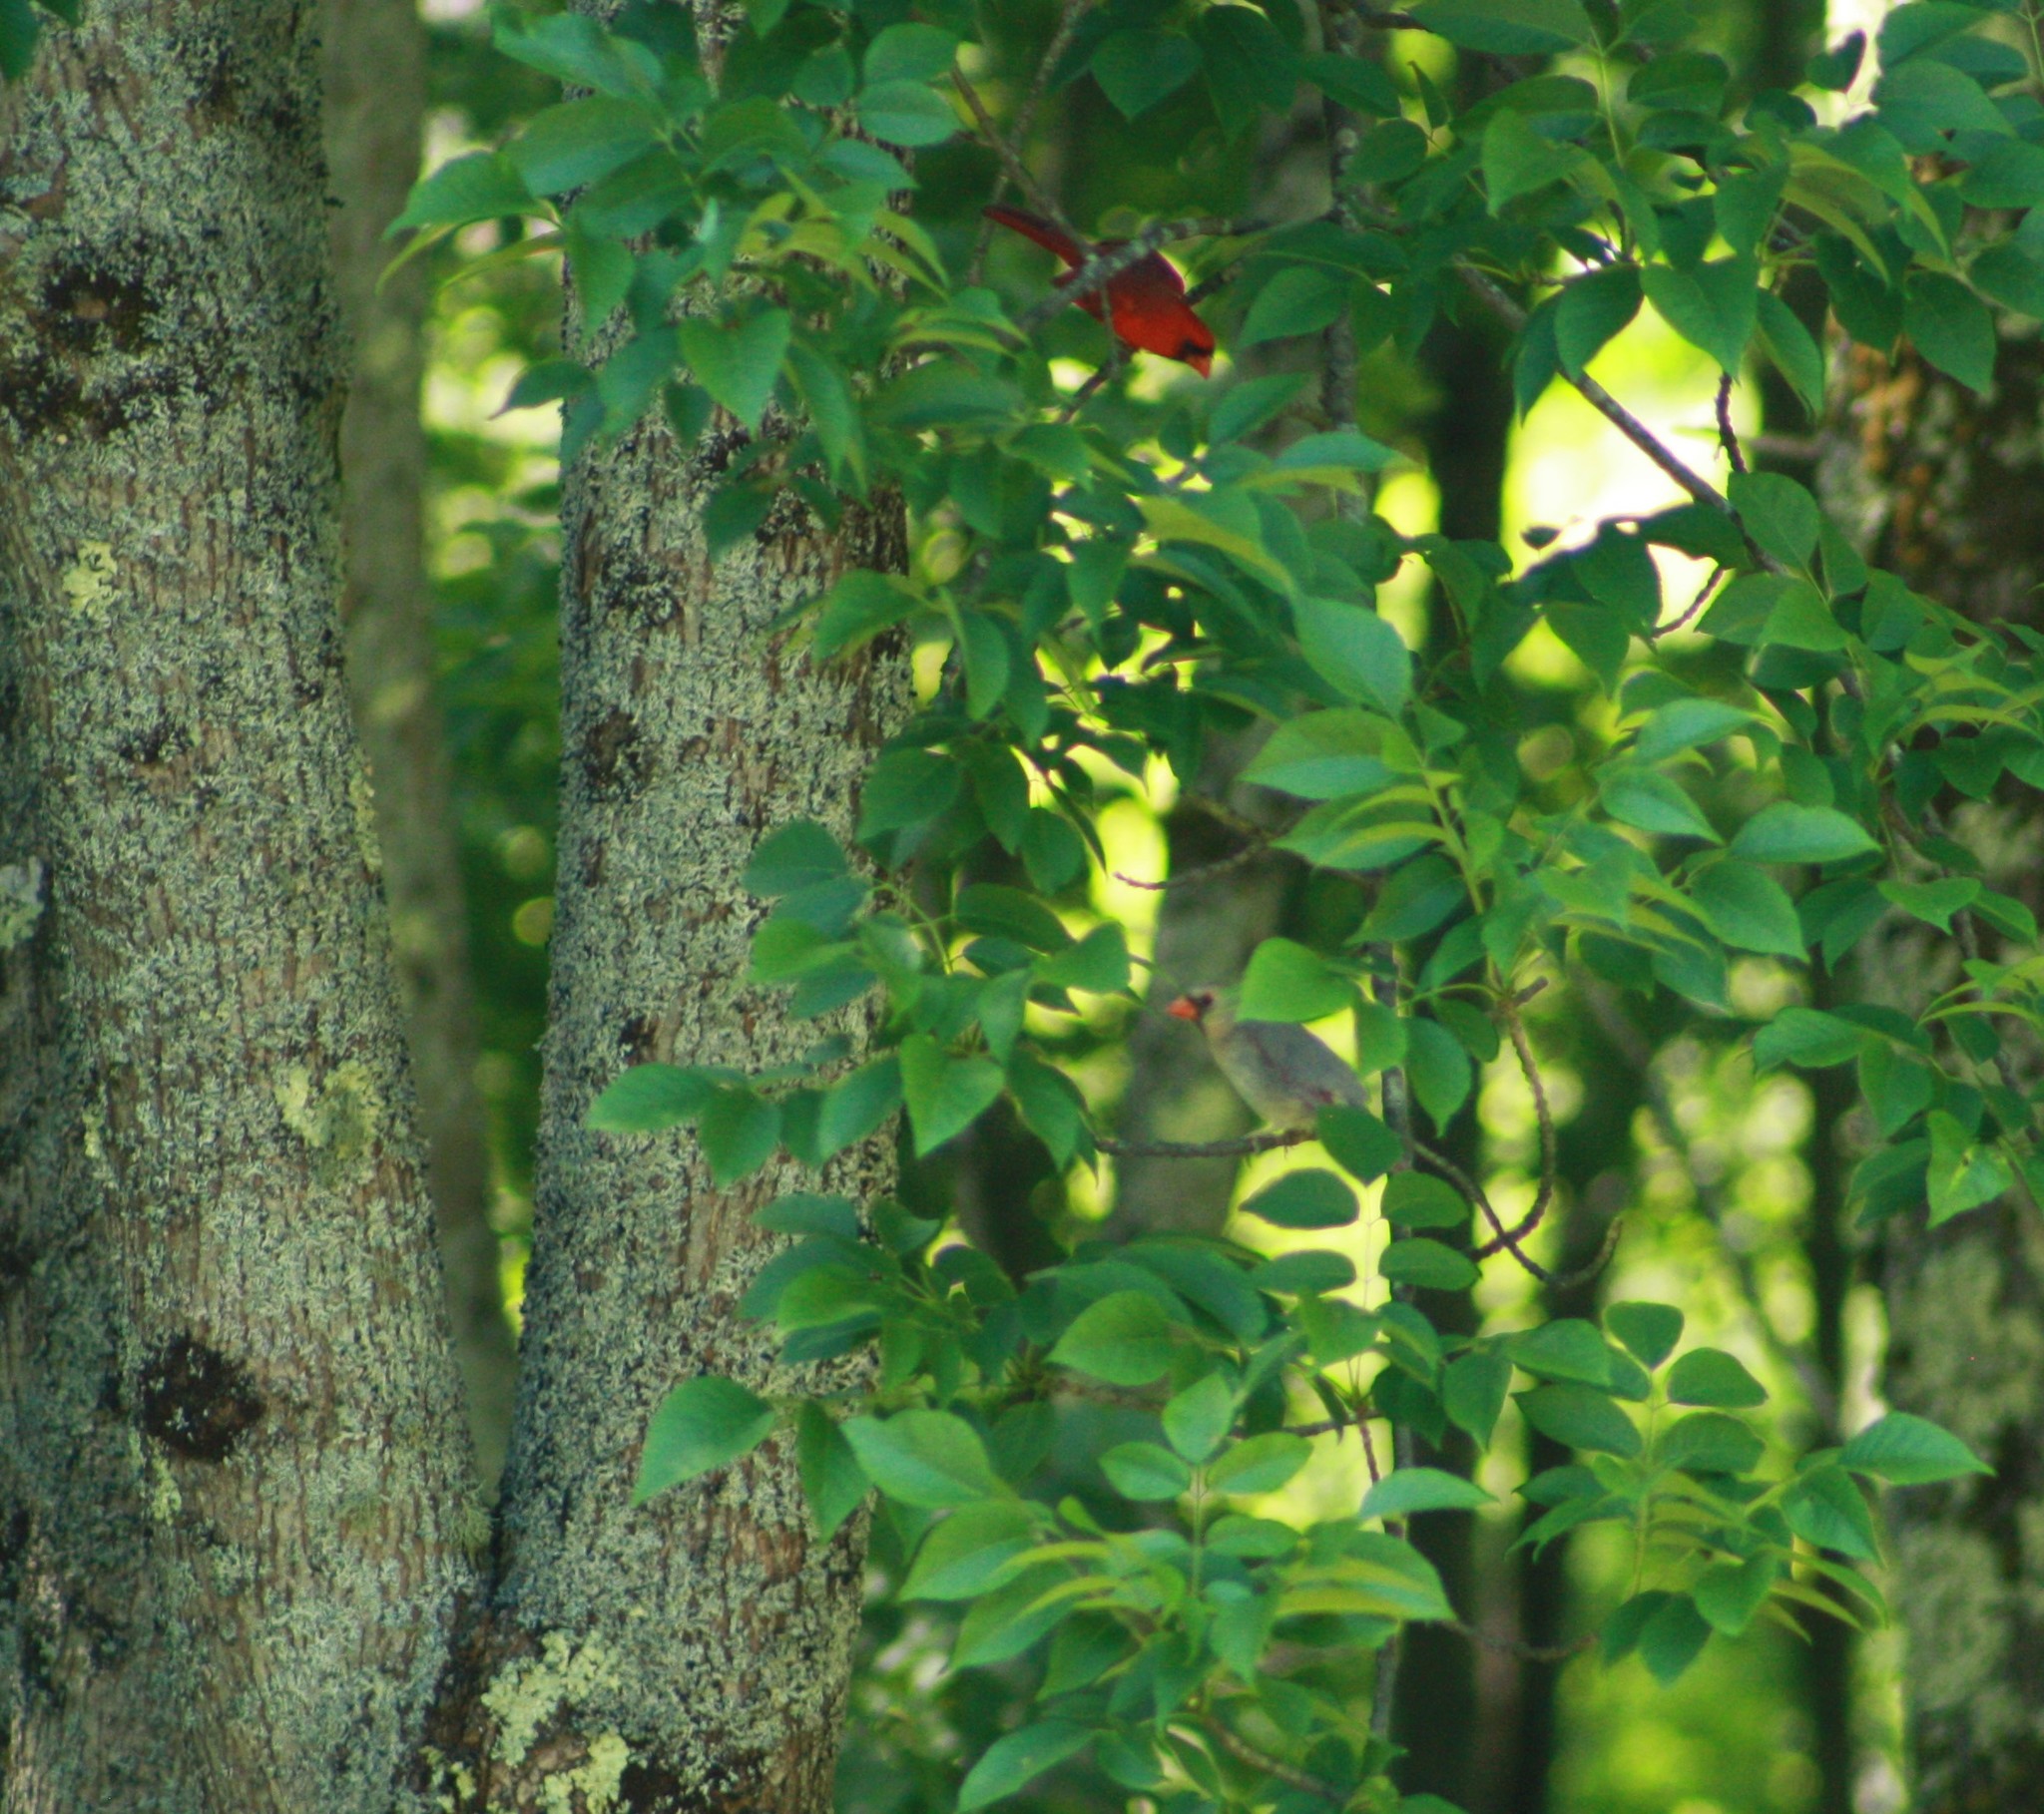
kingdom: Animalia
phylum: Chordata
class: Aves
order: Passeriformes
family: Cardinalidae
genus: Cardinalis
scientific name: Cardinalis cardinalis
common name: Northern cardinal
